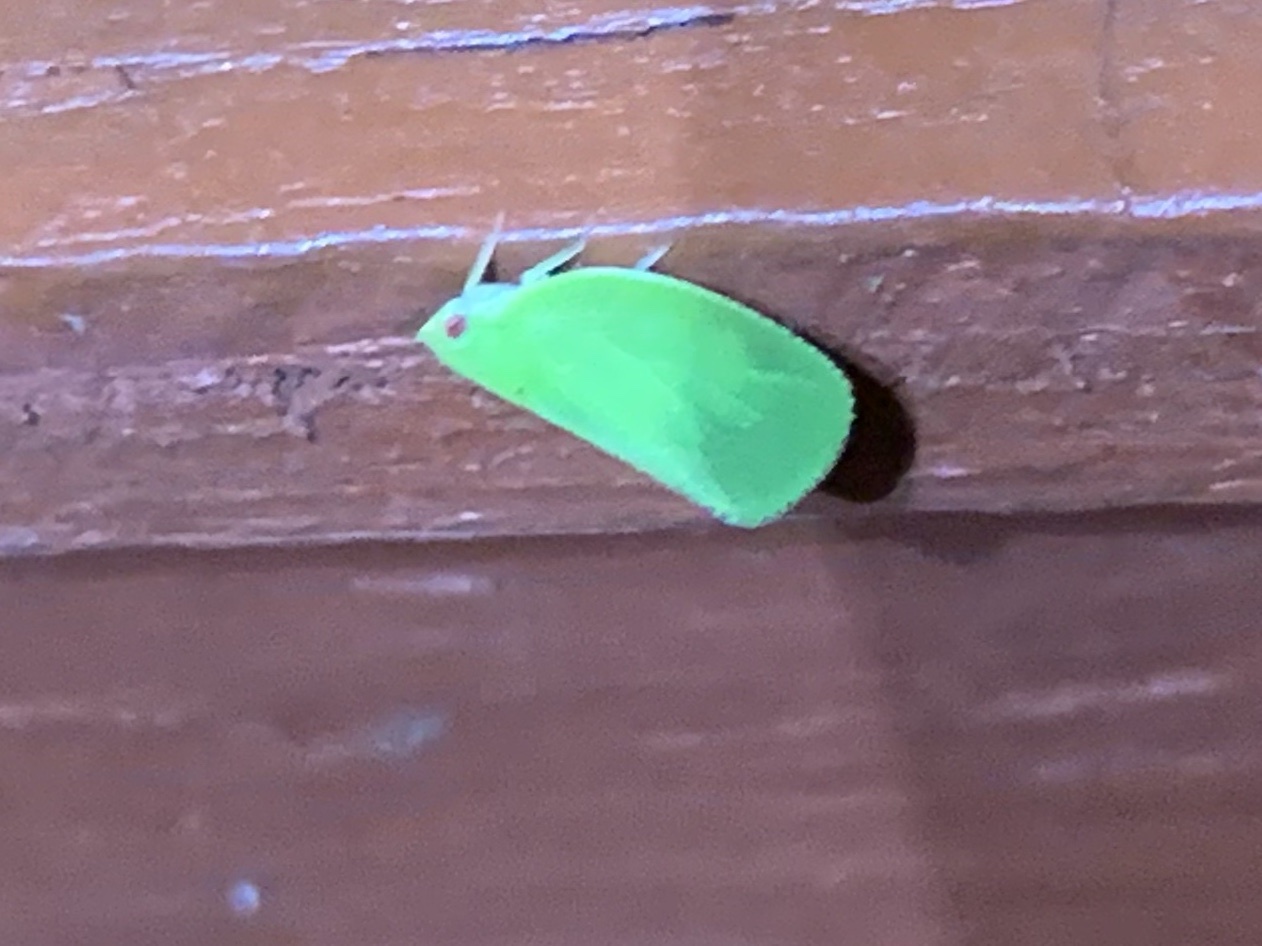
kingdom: Animalia
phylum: Arthropoda
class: Insecta
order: Hemiptera
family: Acanaloniidae
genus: Acanalonia
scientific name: Acanalonia conica
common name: Green cone-headed planthopper
